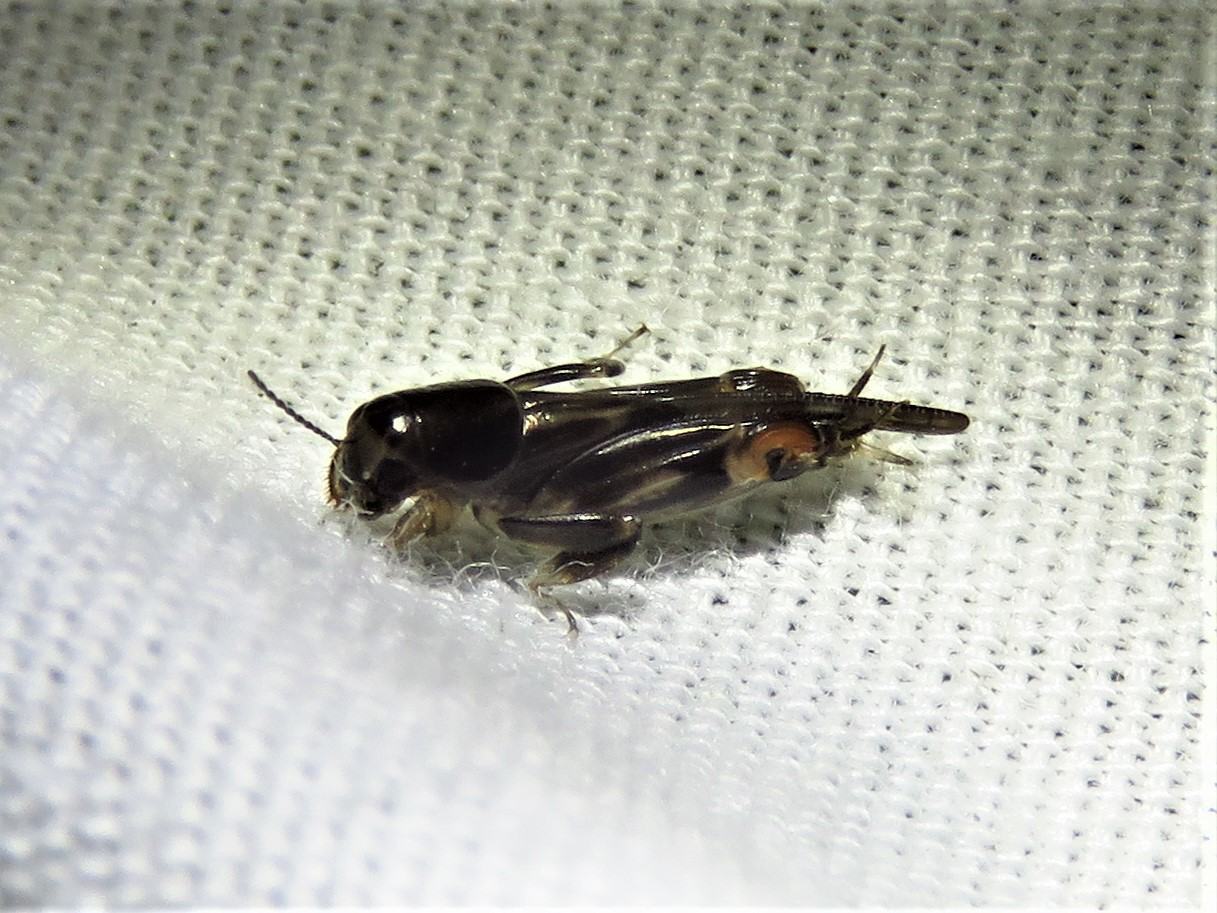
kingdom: Animalia
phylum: Arthropoda
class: Insecta
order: Orthoptera
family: Tridactylidae
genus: Neotridactylus
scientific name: Neotridactylus apicialis
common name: Larger pygmy locust
